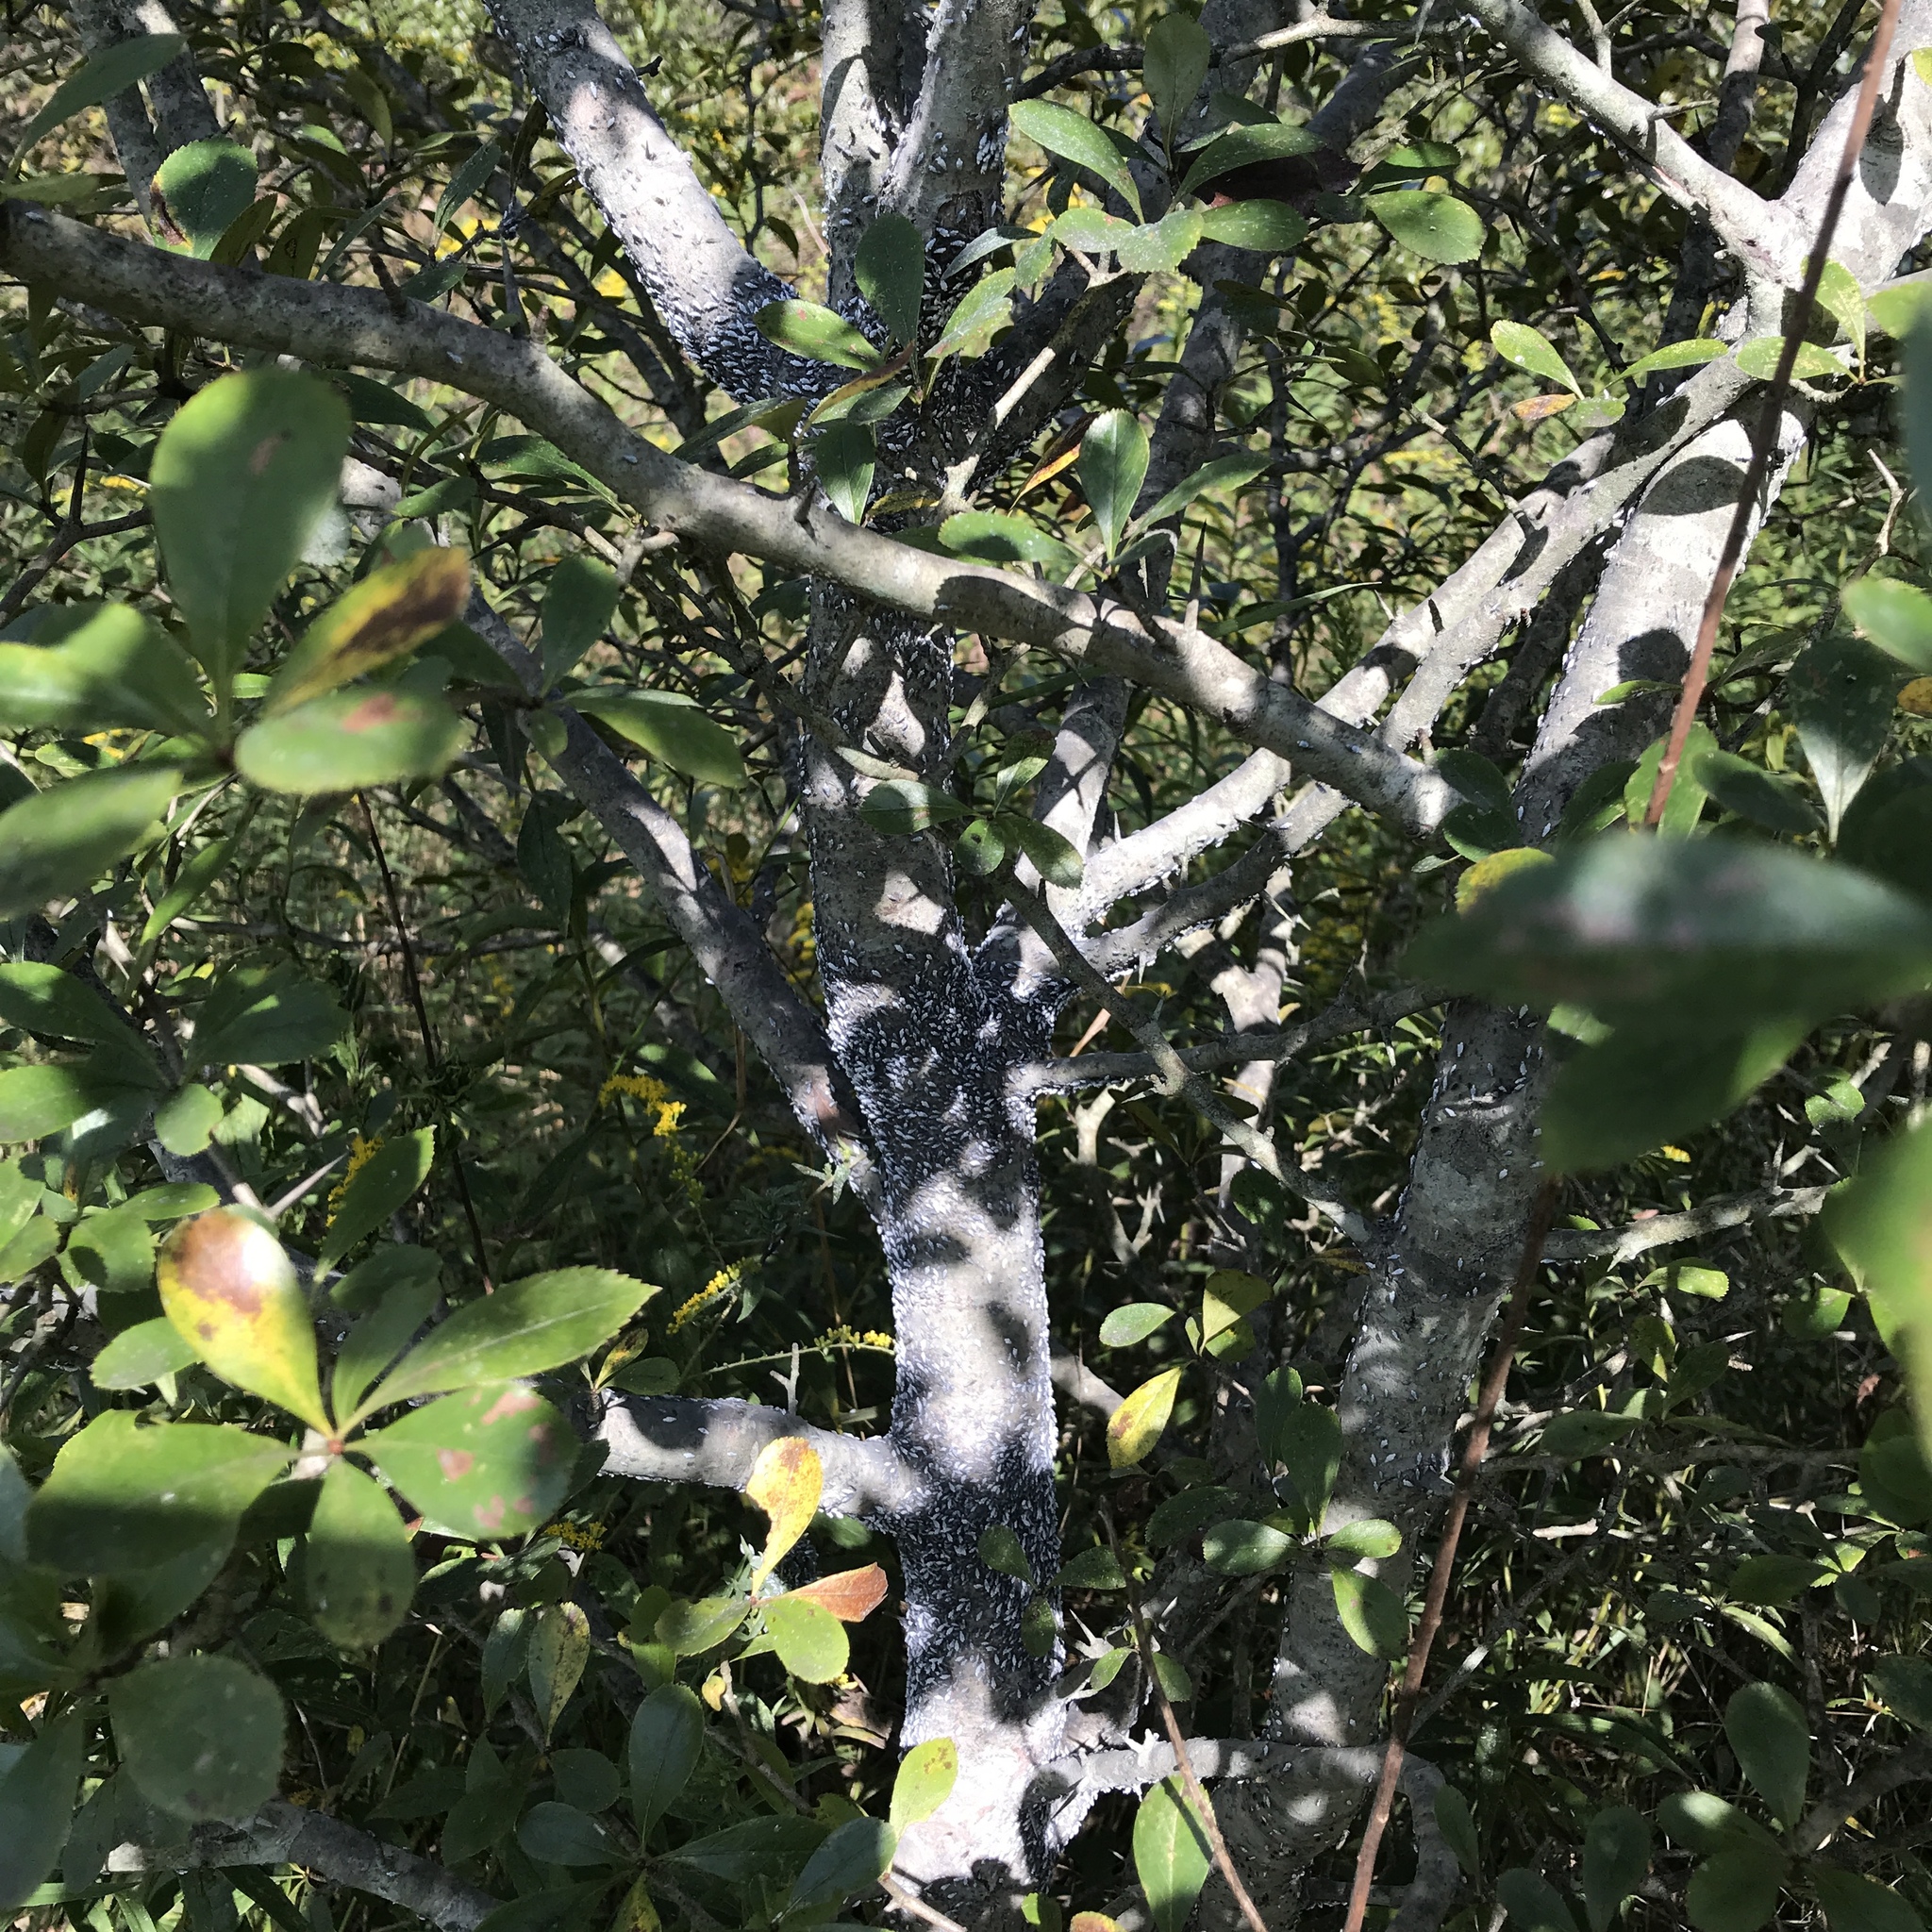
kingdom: Animalia
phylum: Arthropoda
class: Insecta
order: Hemiptera
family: Aphididae
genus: Eriosoma
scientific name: Eriosoma lanigerum
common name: Woolly apple aphid
